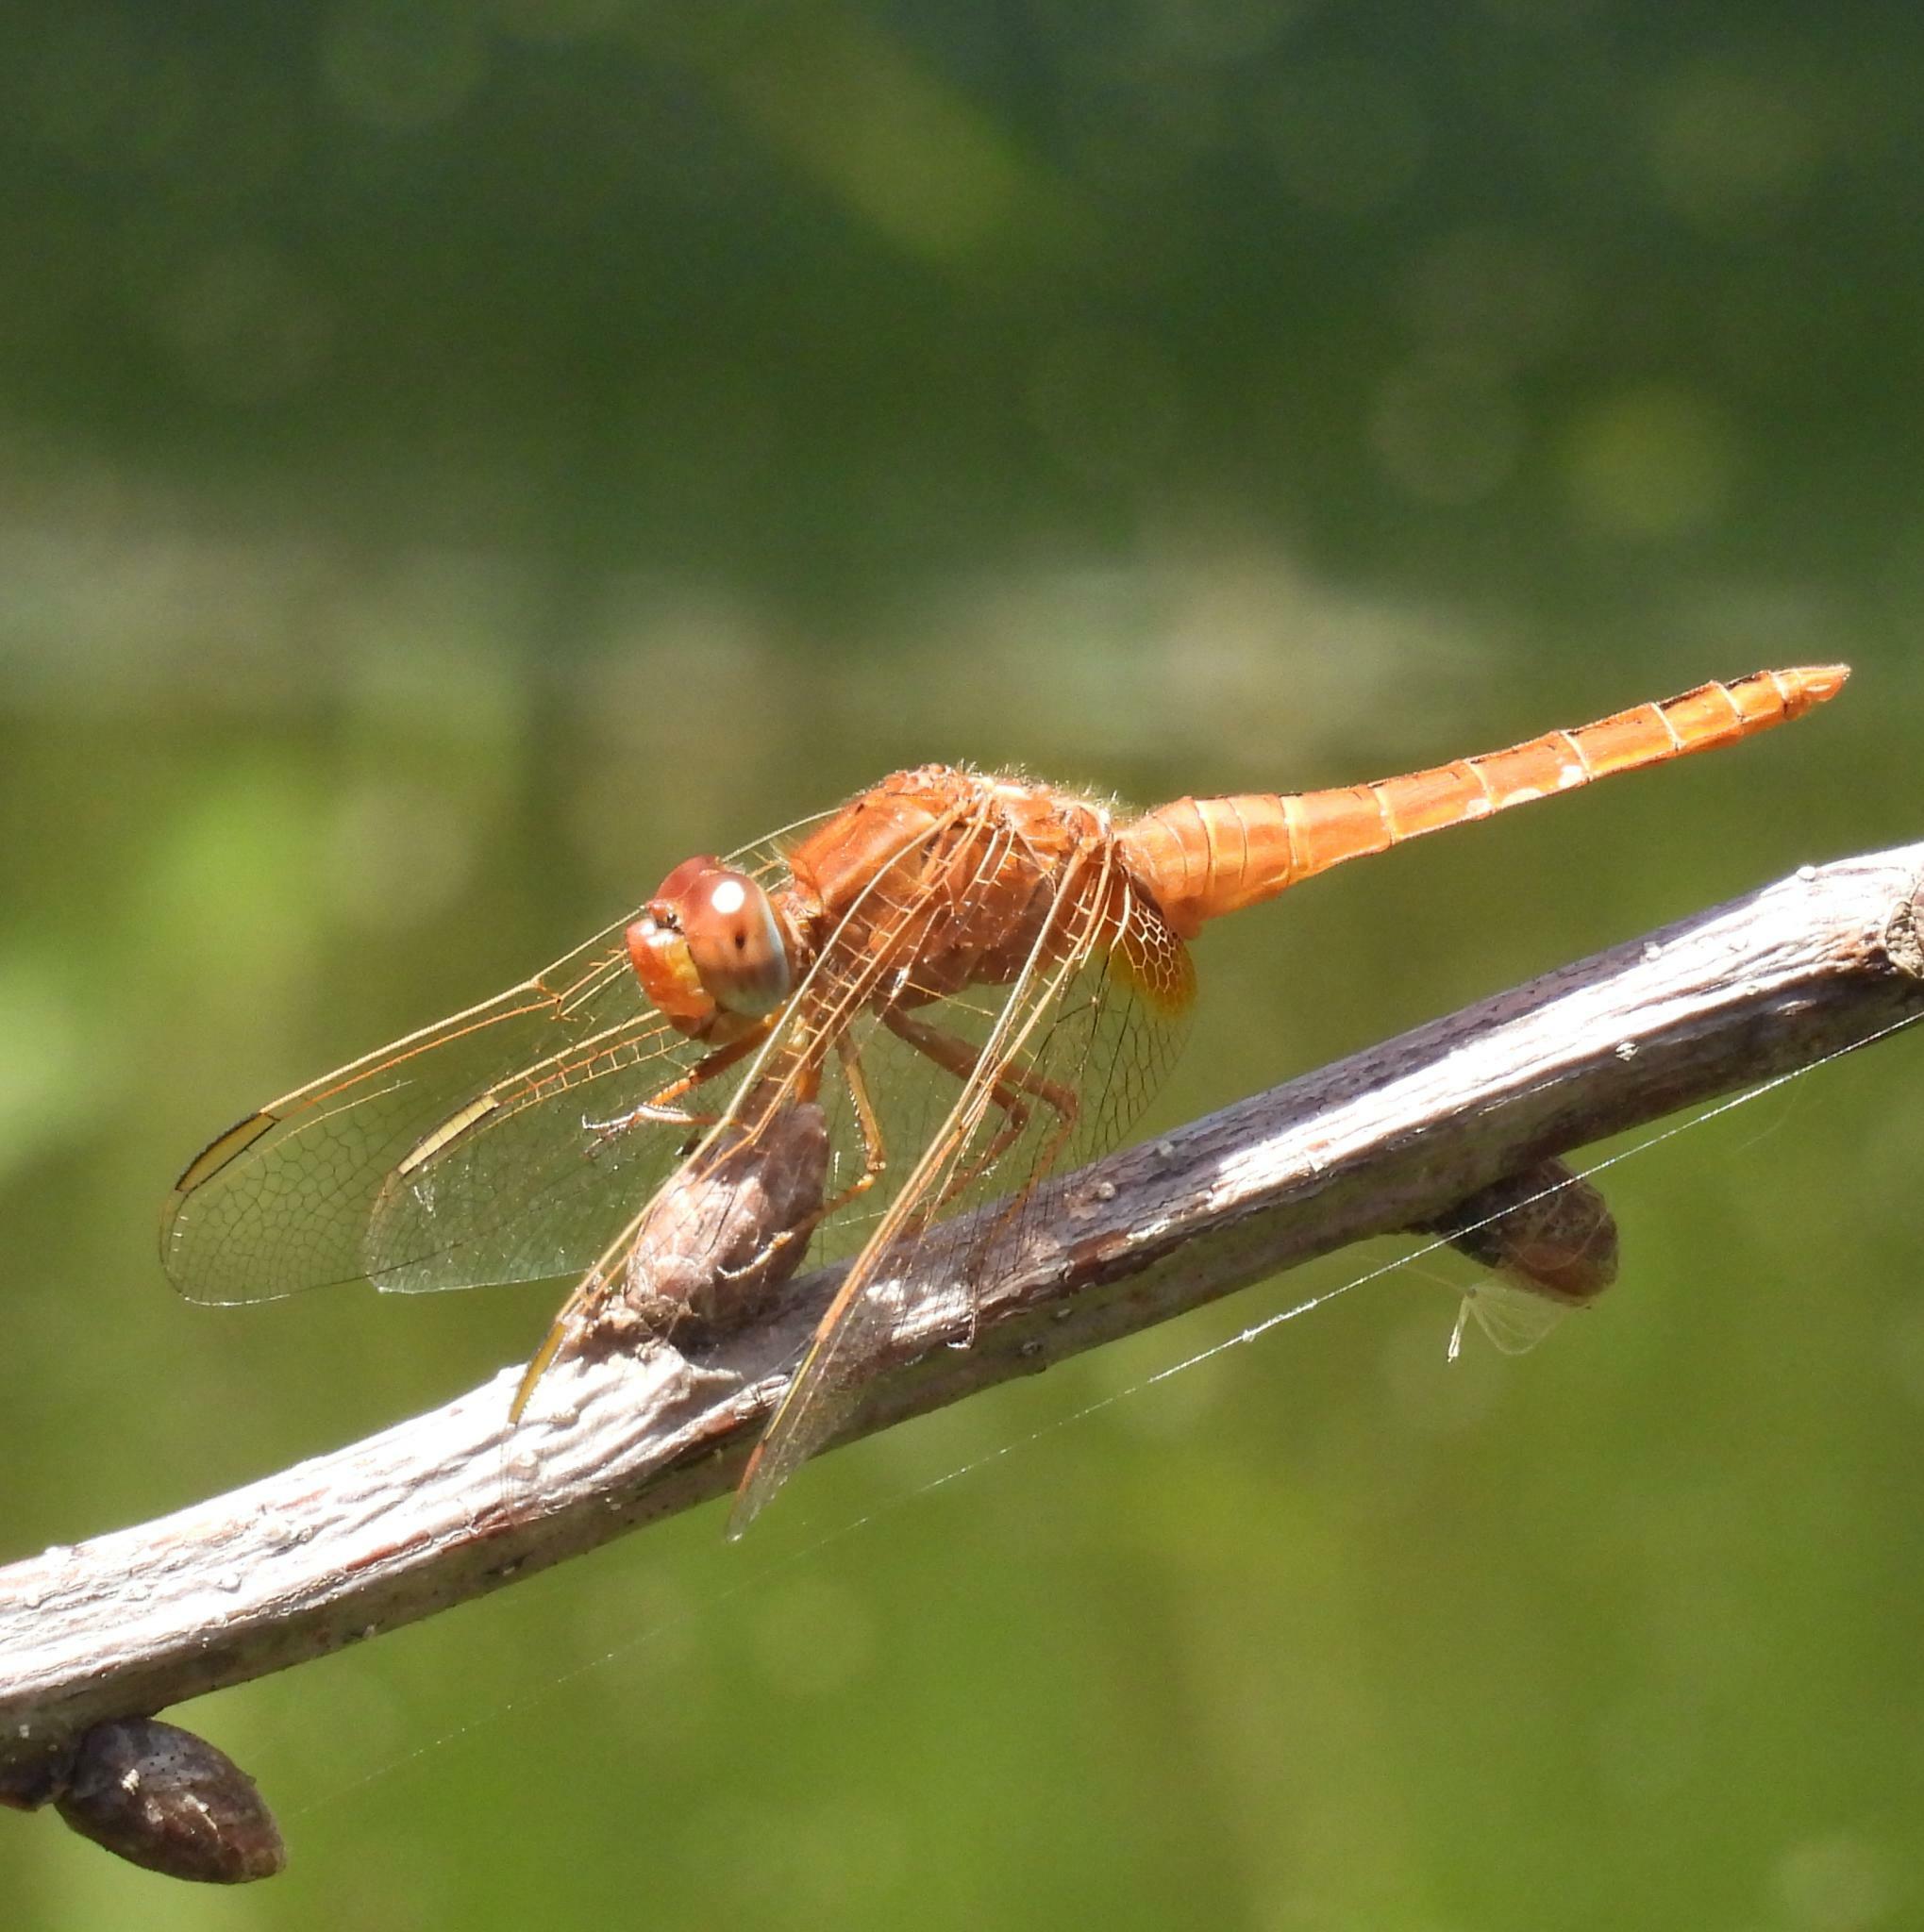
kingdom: Animalia
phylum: Arthropoda
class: Insecta
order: Odonata
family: Libellulidae
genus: Crocothemis
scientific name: Crocothemis erythraea
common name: Scarlet dragonfly
